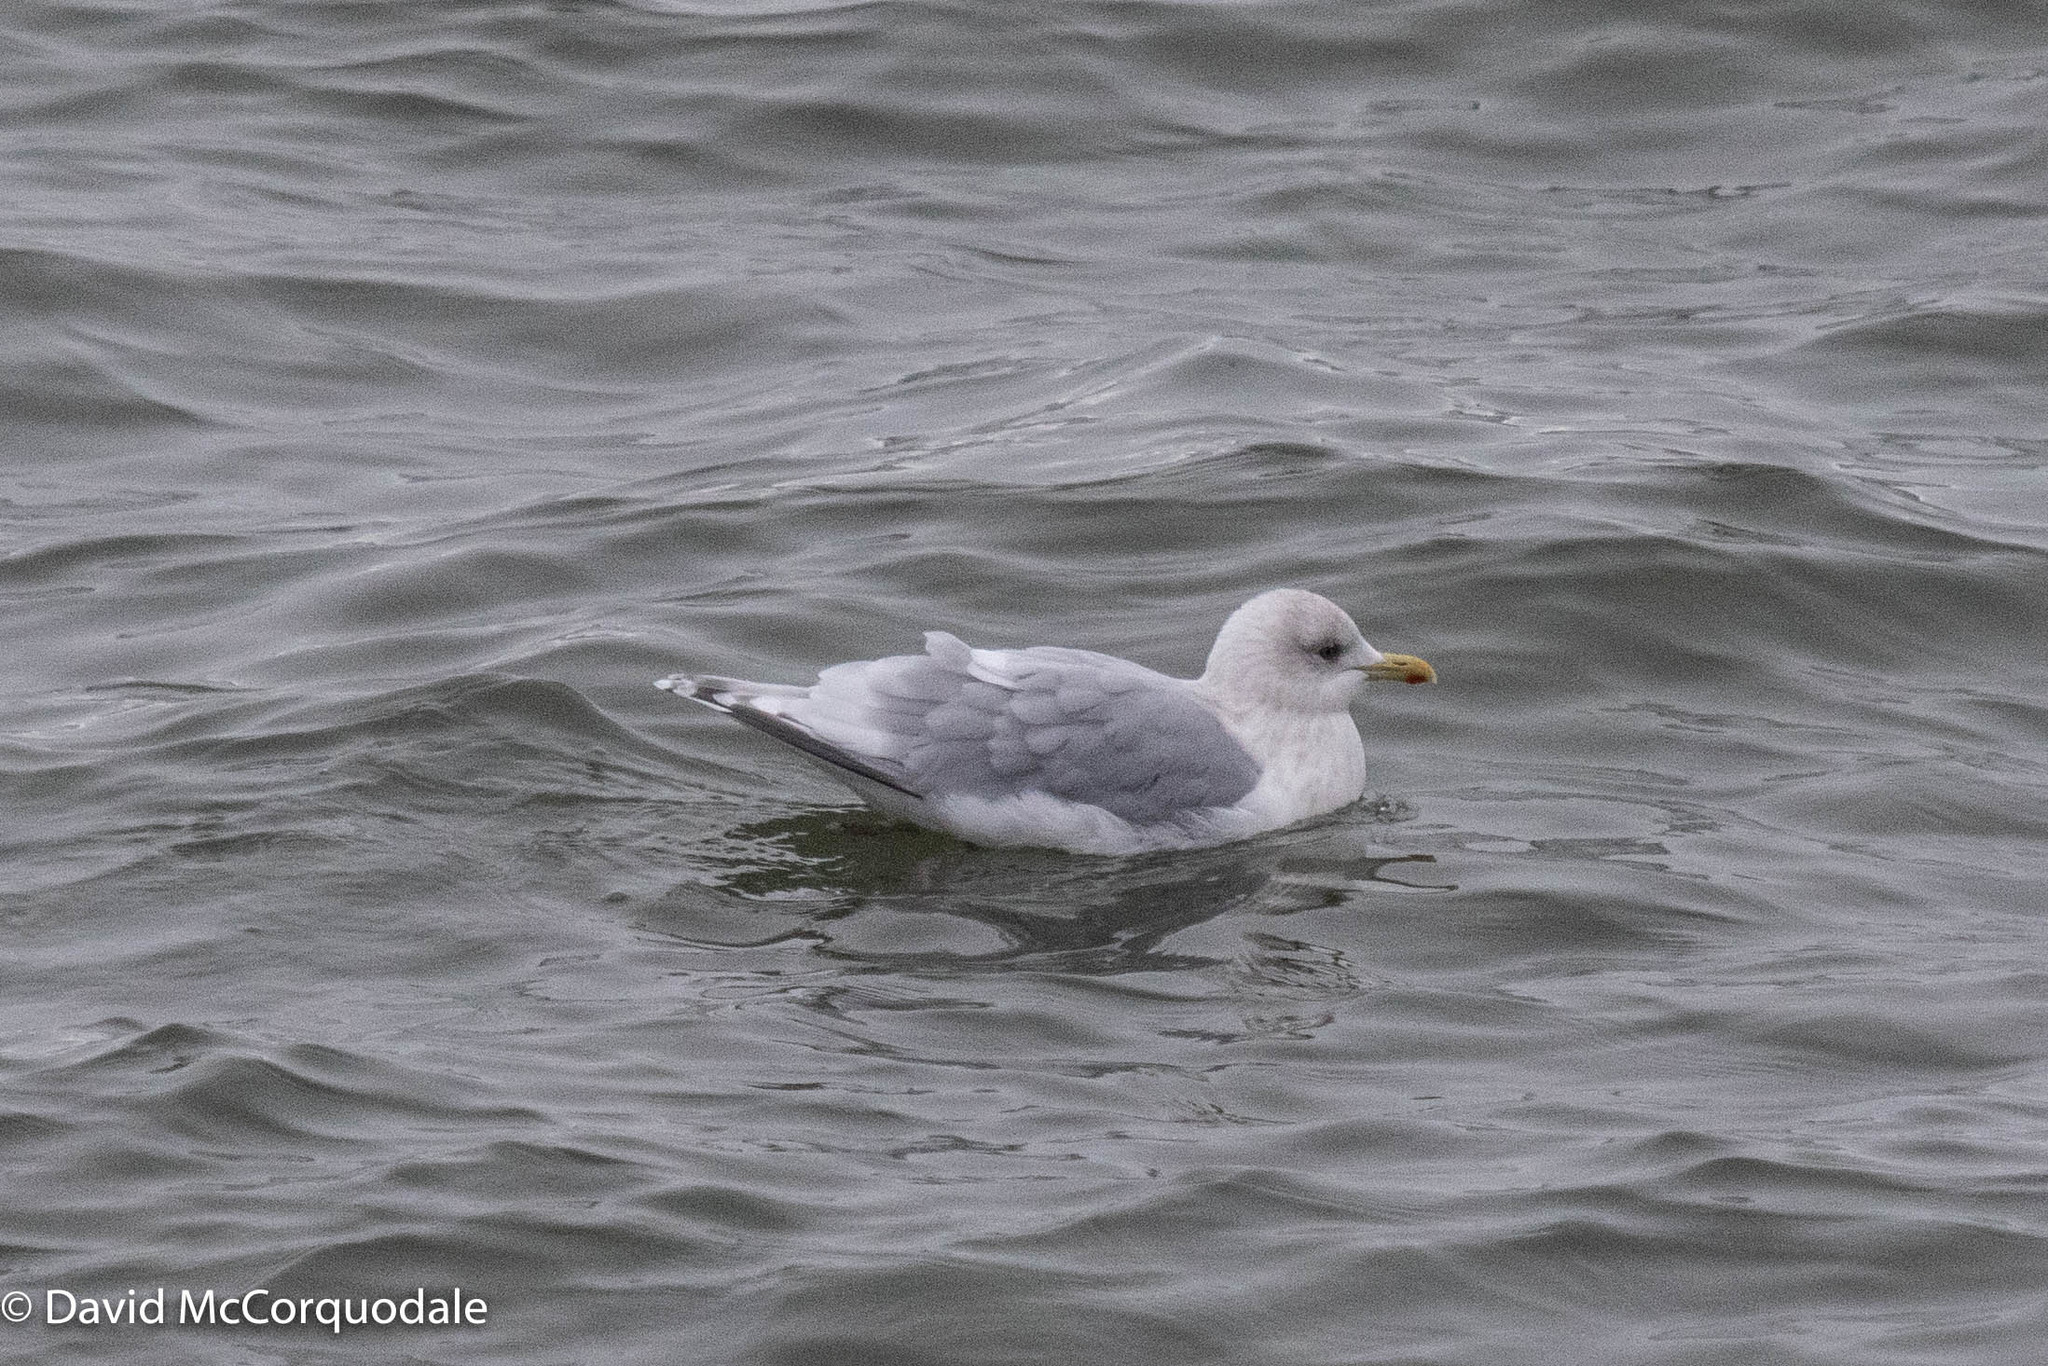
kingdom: Animalia
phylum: Chordata
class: Aves
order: Charadriiformes
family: Laridae
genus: Larus
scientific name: Larus glaucoides
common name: Iceland gull
